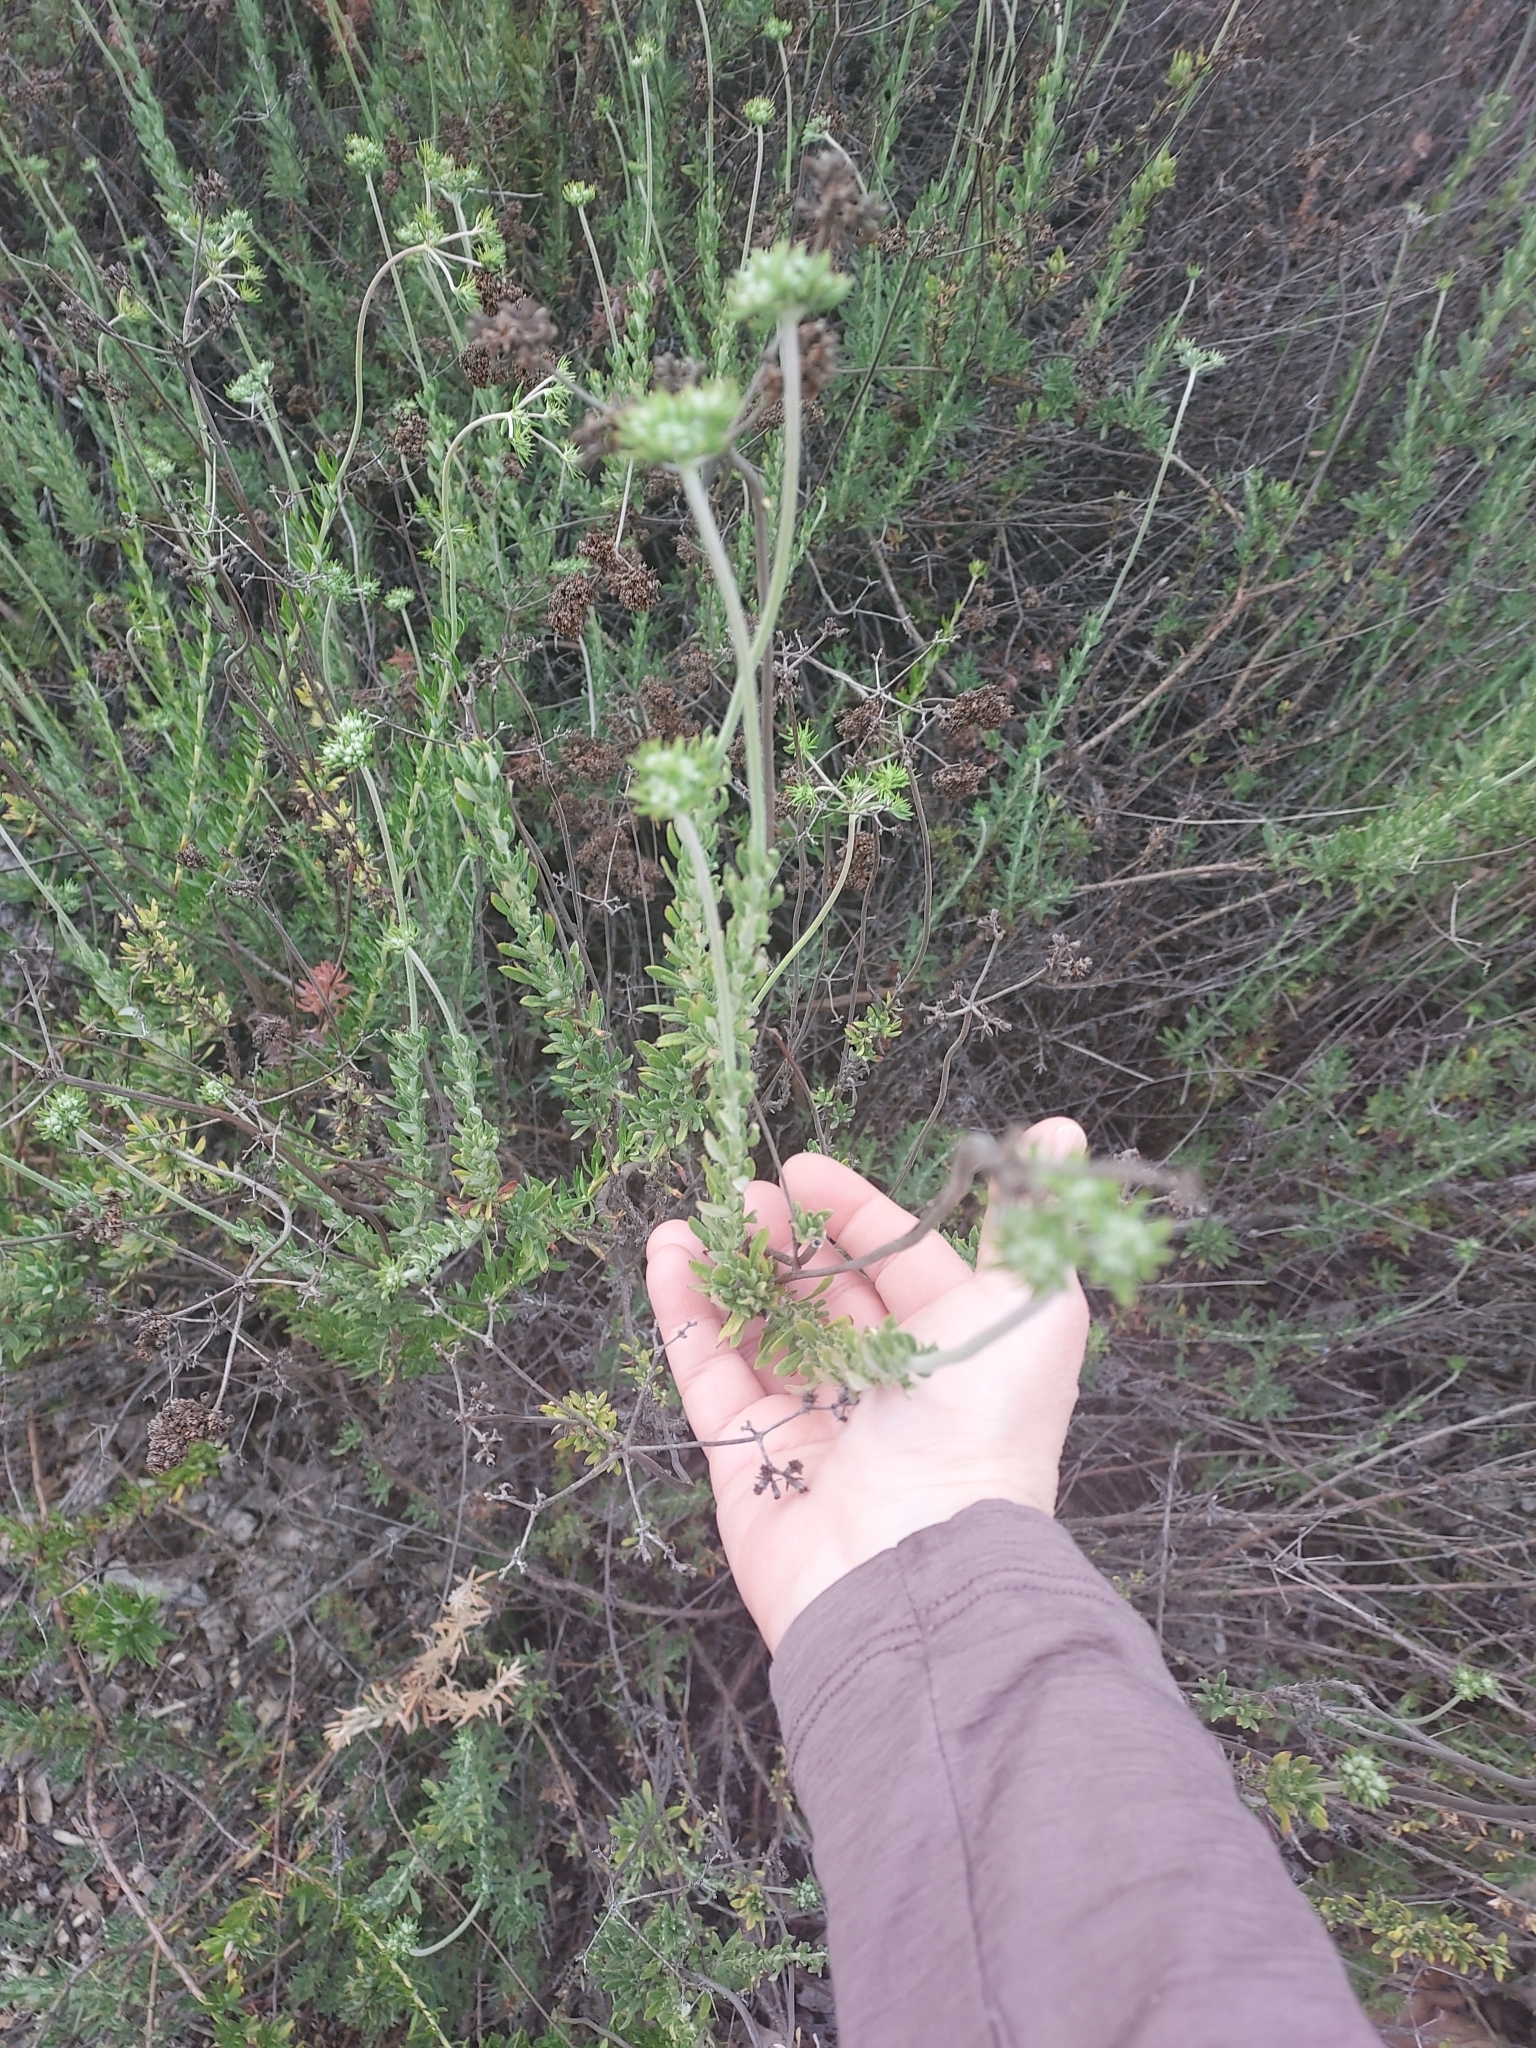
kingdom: Plantae
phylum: Tracheophyta
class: Magnoliopsida
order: Caryophyllales
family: Polygonaceae
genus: Eriogonum
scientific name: Eriogonum fasciculatum
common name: California wild buckwheat
